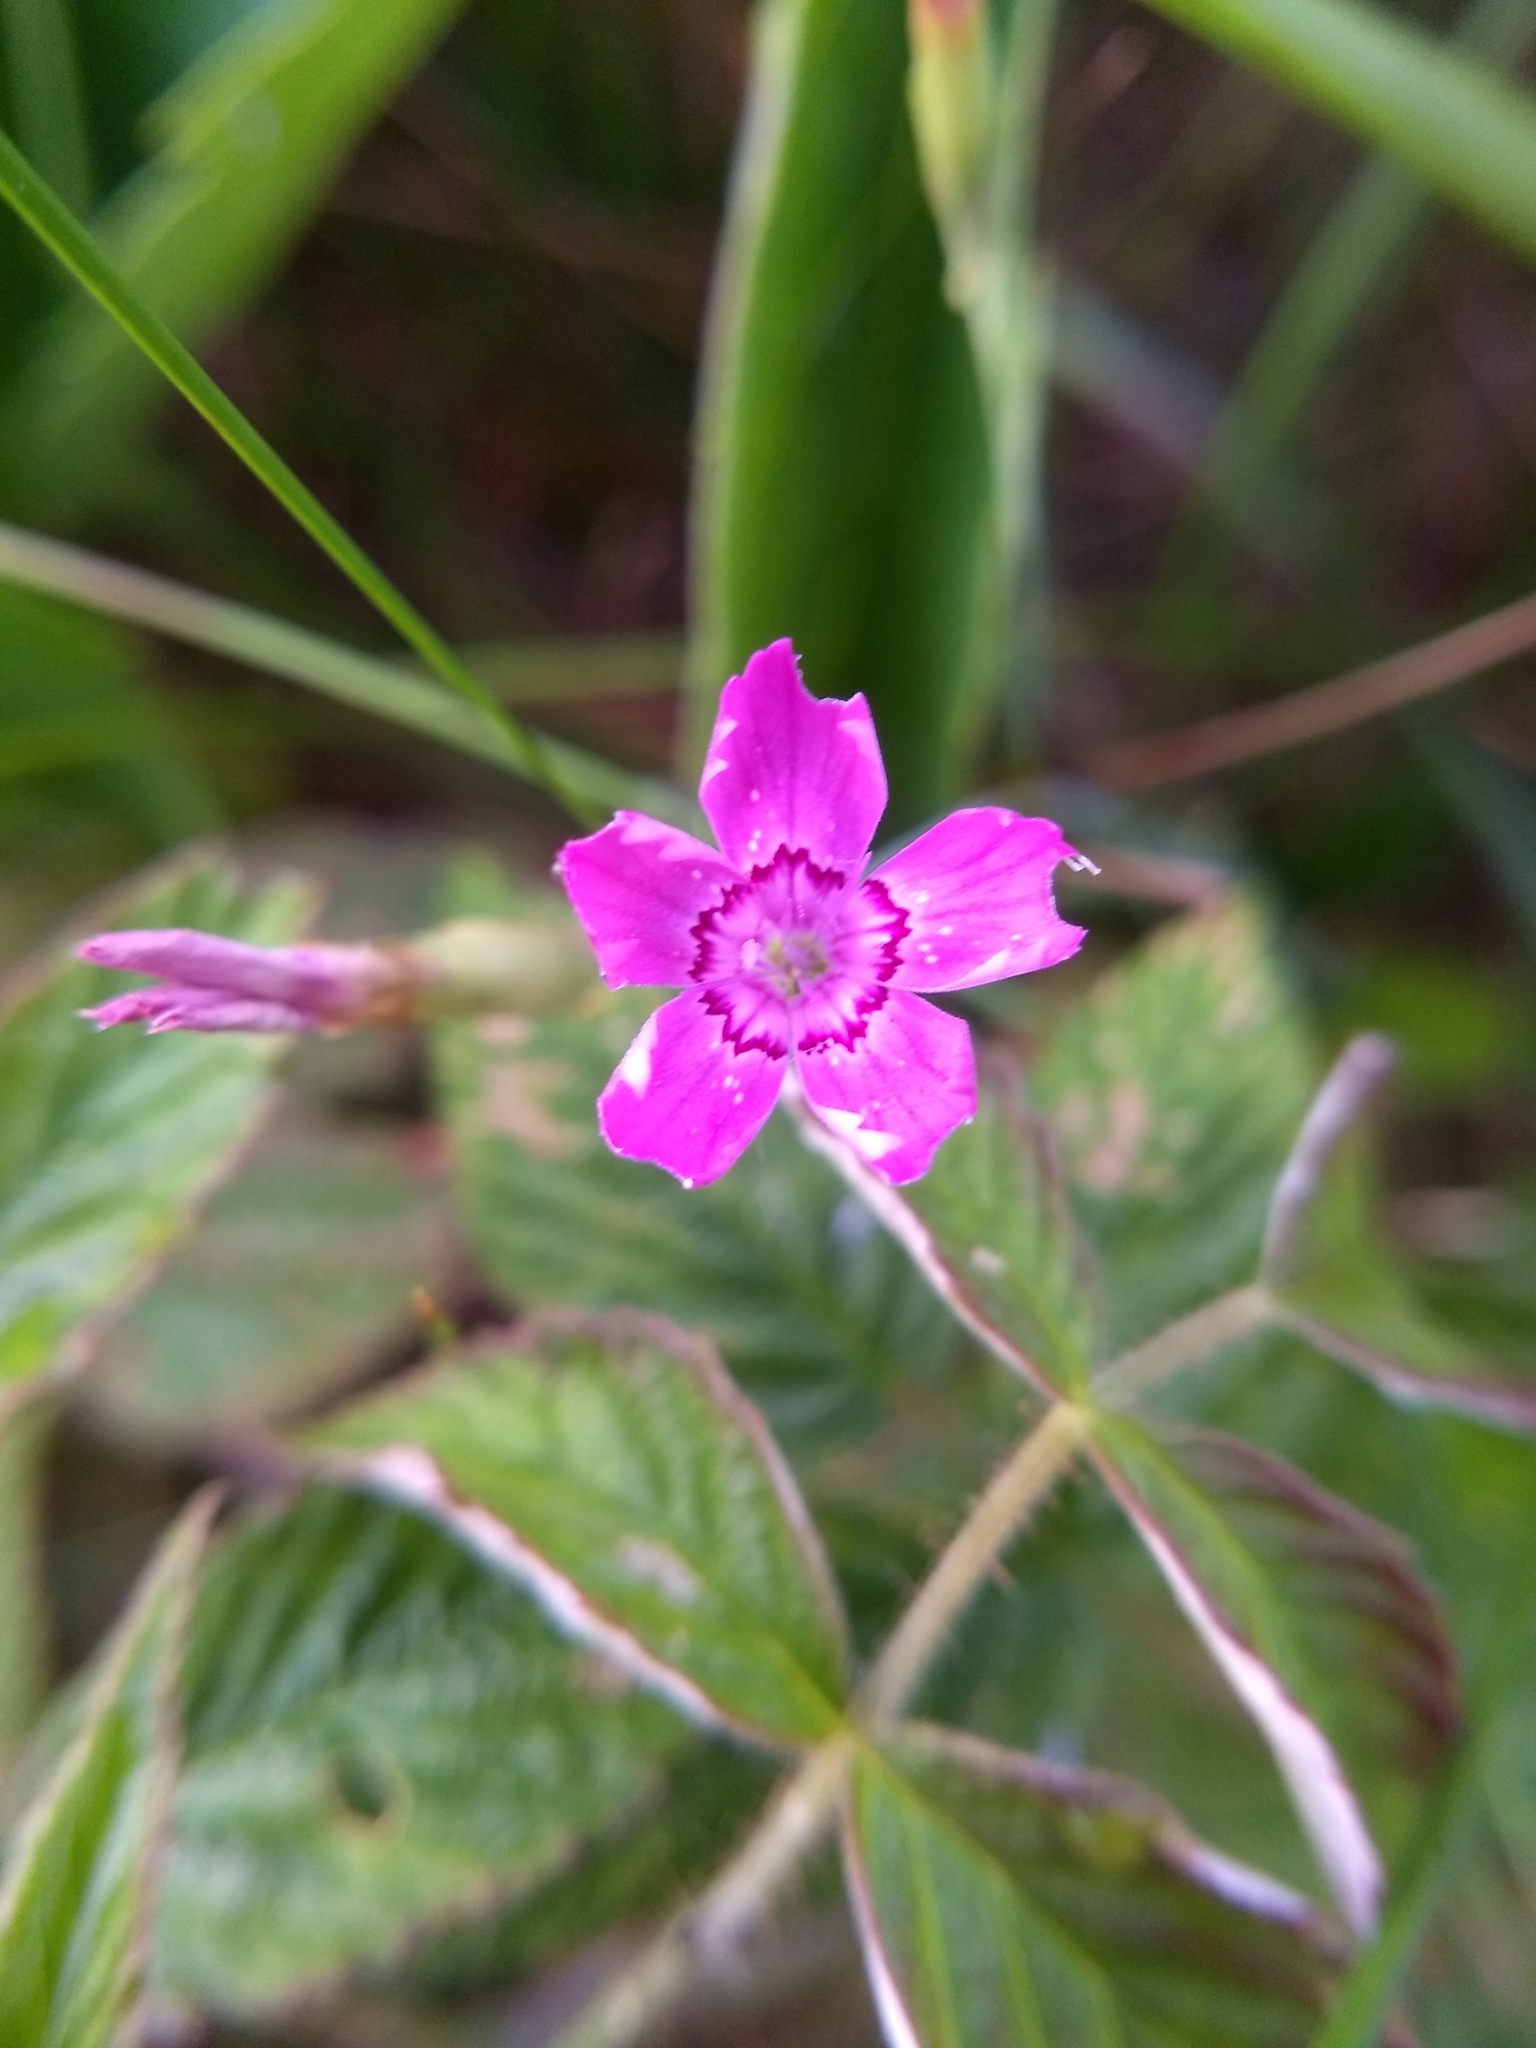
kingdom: Plantae
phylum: Tracheophyta
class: Magnoliopsida
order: Caryophyllales
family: Caryophyllaceae
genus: Dianthus
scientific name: Dianthus deltoides
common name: Maiden pink
